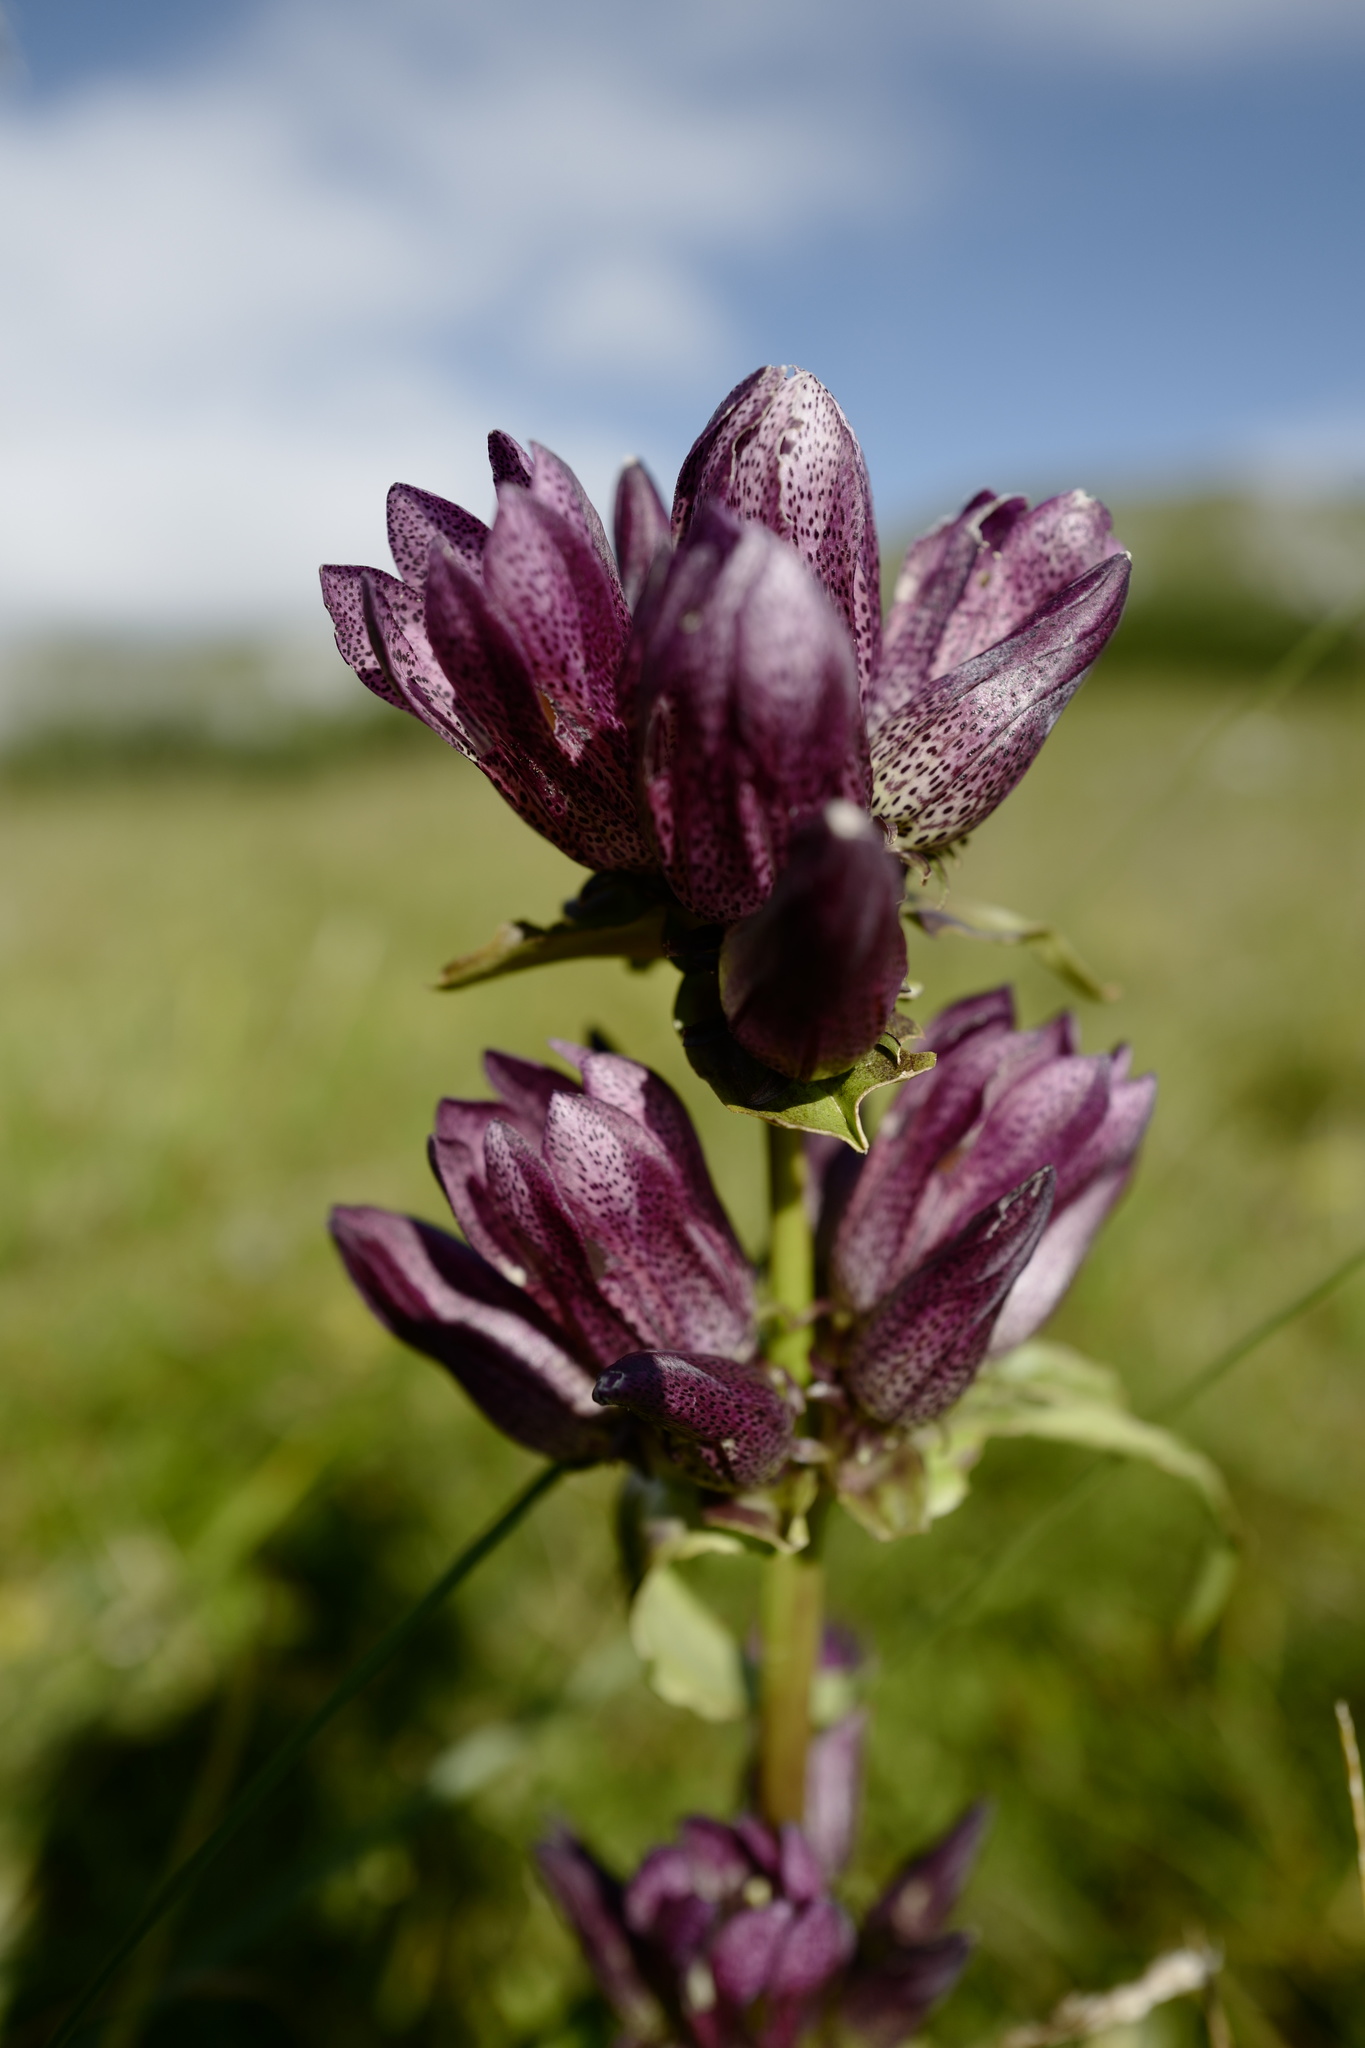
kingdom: Plantae
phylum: Tracheophyta
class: Magnoliopsida
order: Gentianales
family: Gentianaceae
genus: Gentiana
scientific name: Gentiana pannonica
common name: Hungarian gentian
